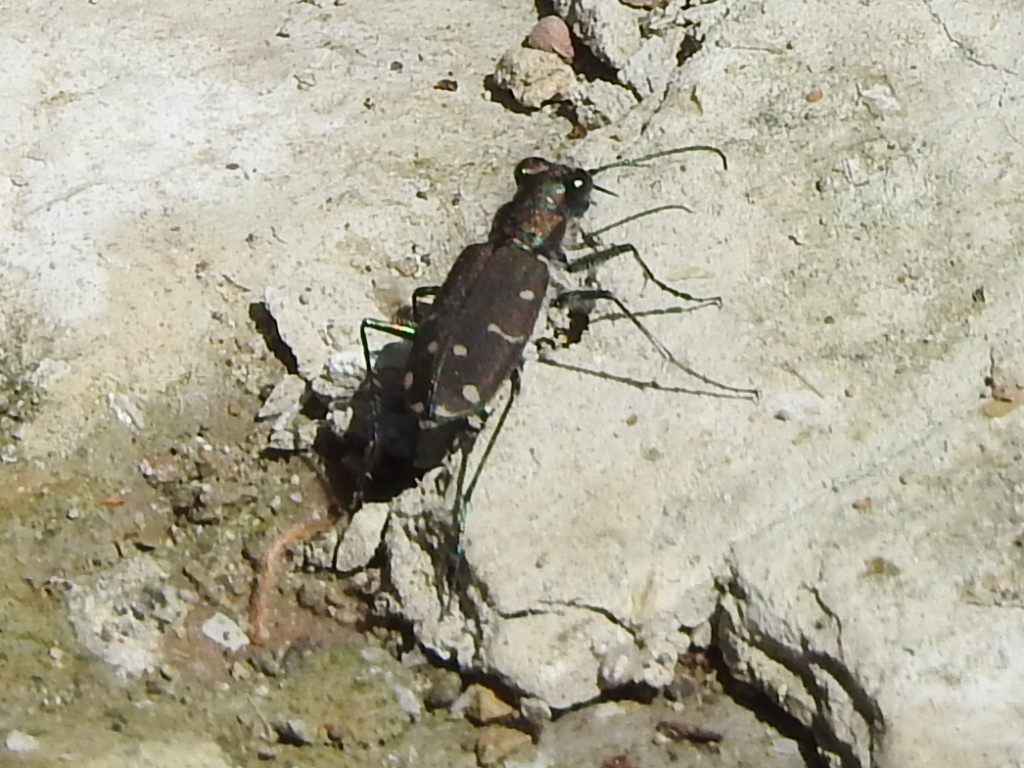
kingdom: Animalia
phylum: Arthropoda
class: Insecta
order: Coleoptera
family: Carabidae
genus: Cicindela
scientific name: Cicindela duodecimguttata
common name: Twelve-spotted tiger beetle
